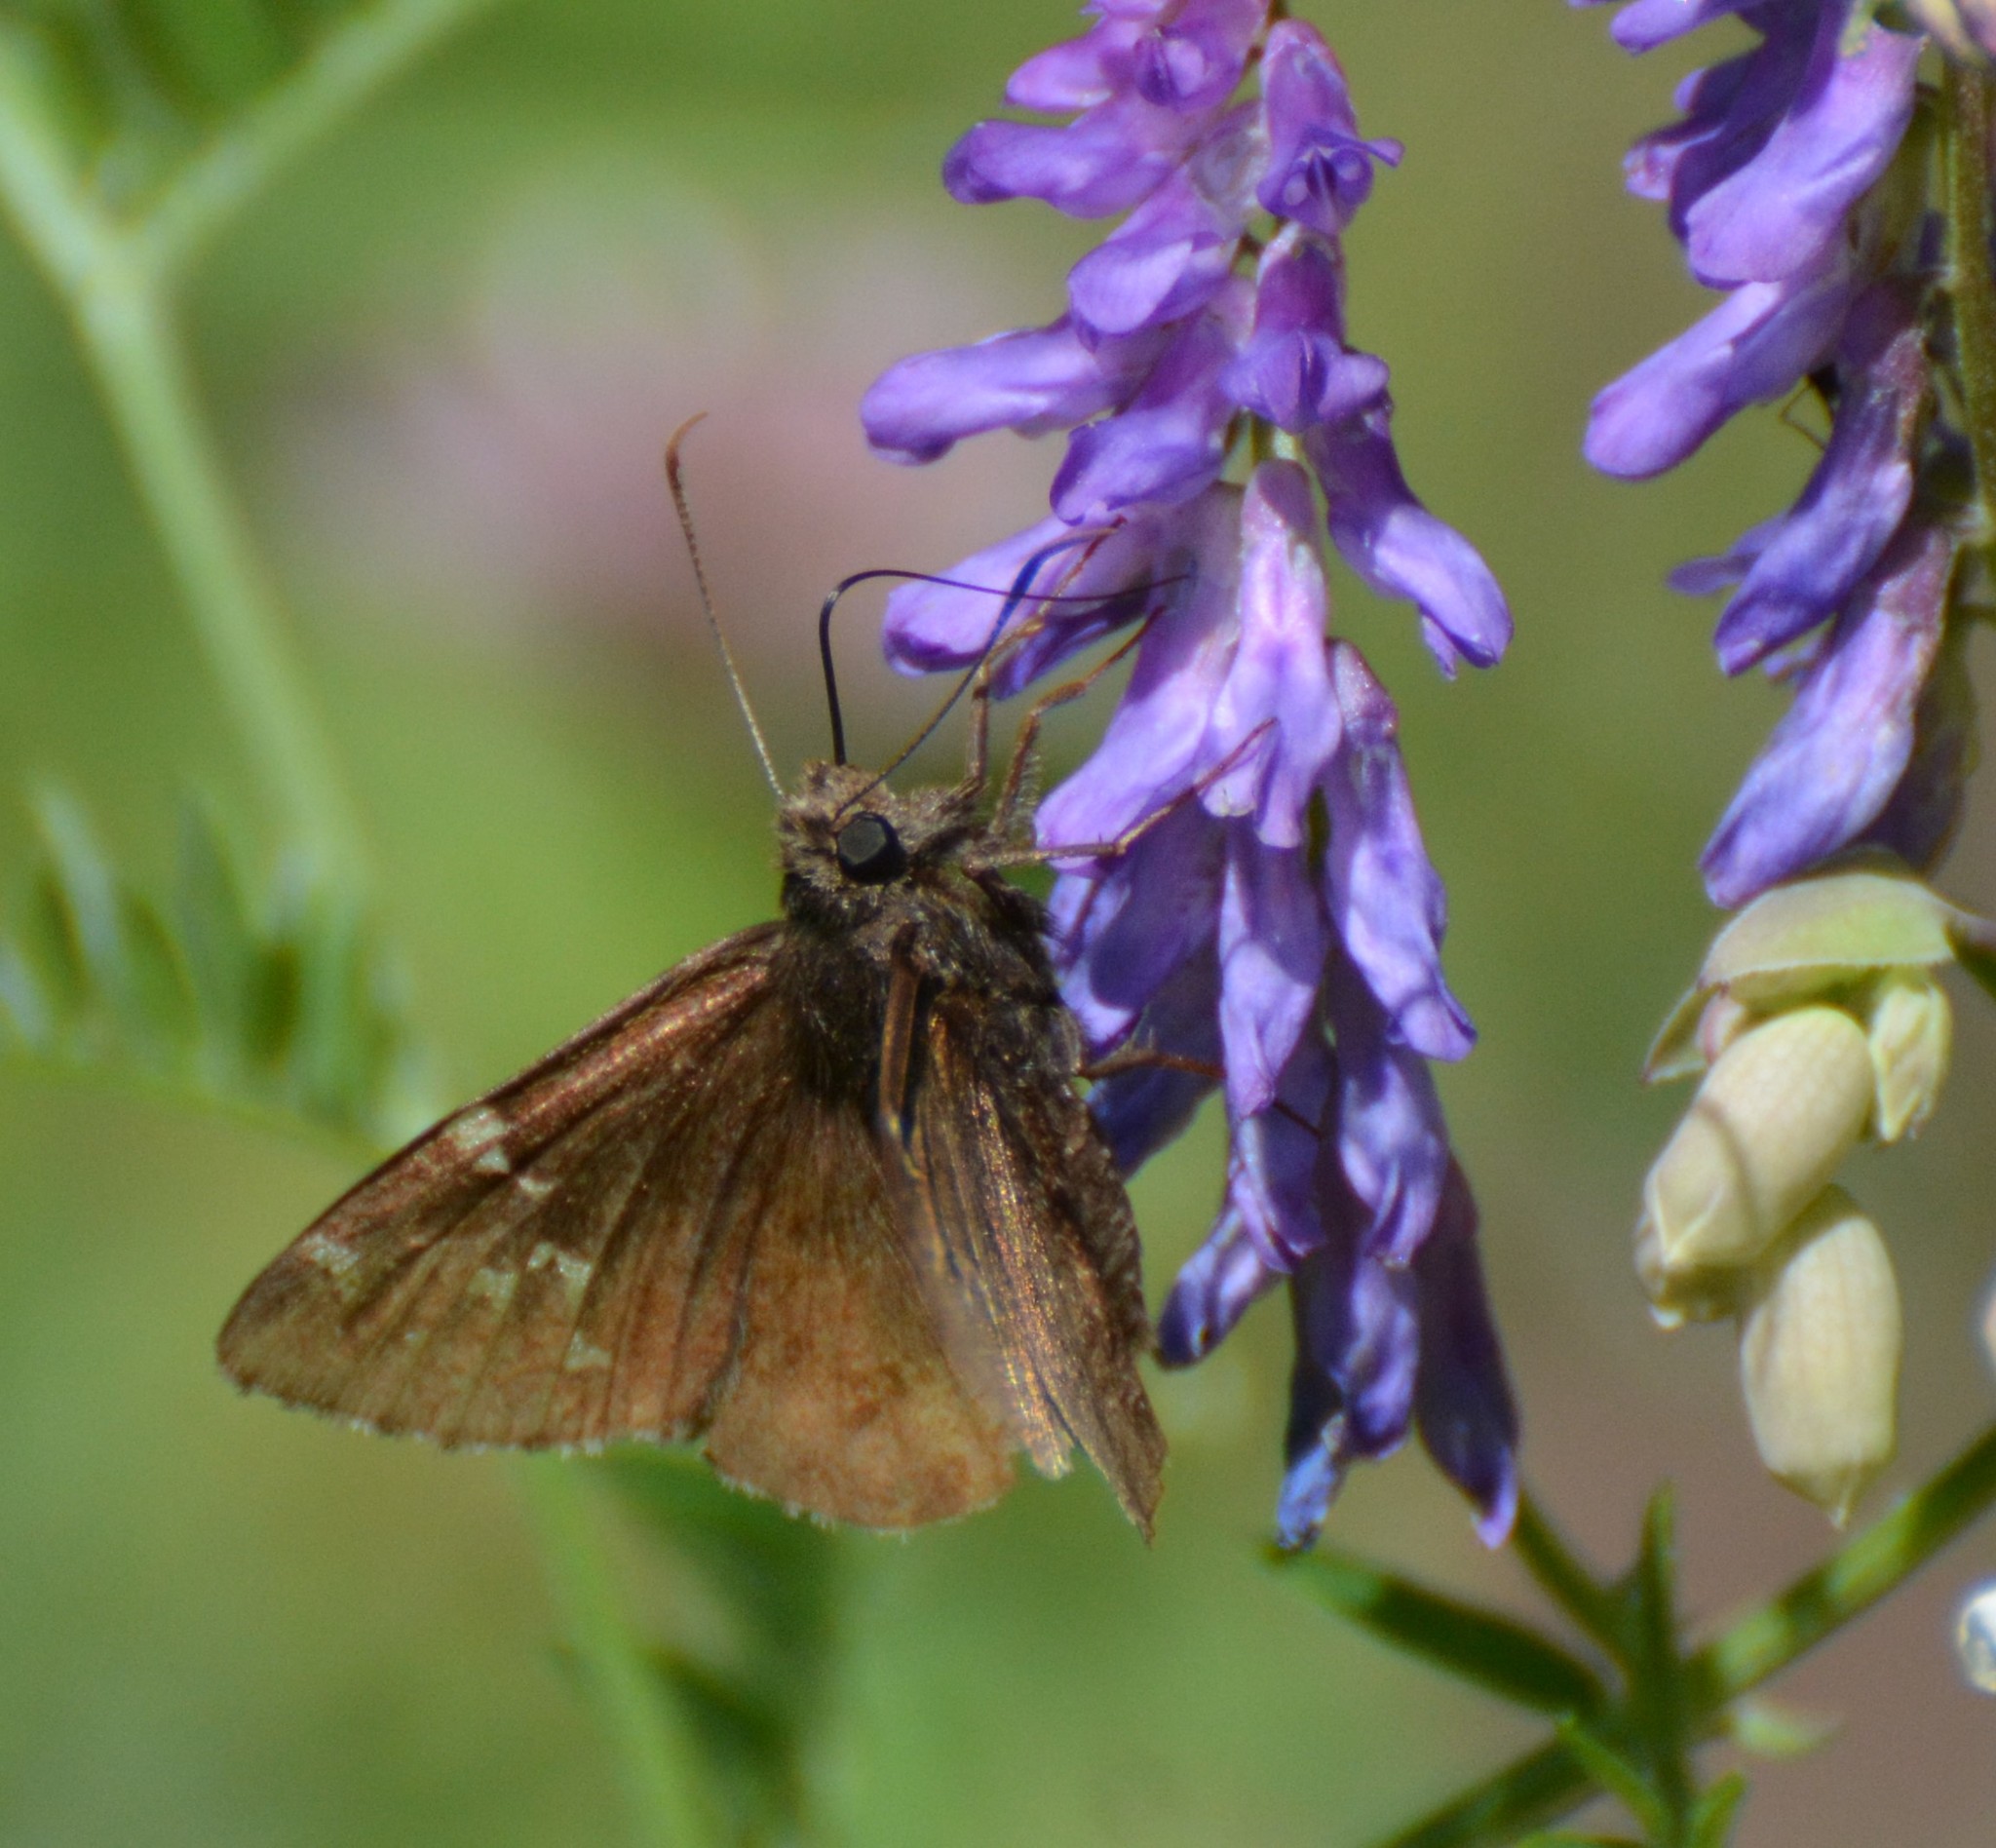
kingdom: Animalia
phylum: Arthropoda
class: Insecta
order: Lepidoptera
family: Hesperiidae
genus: Thorybes
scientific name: Thorybes pylades
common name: Northern cloudywing
